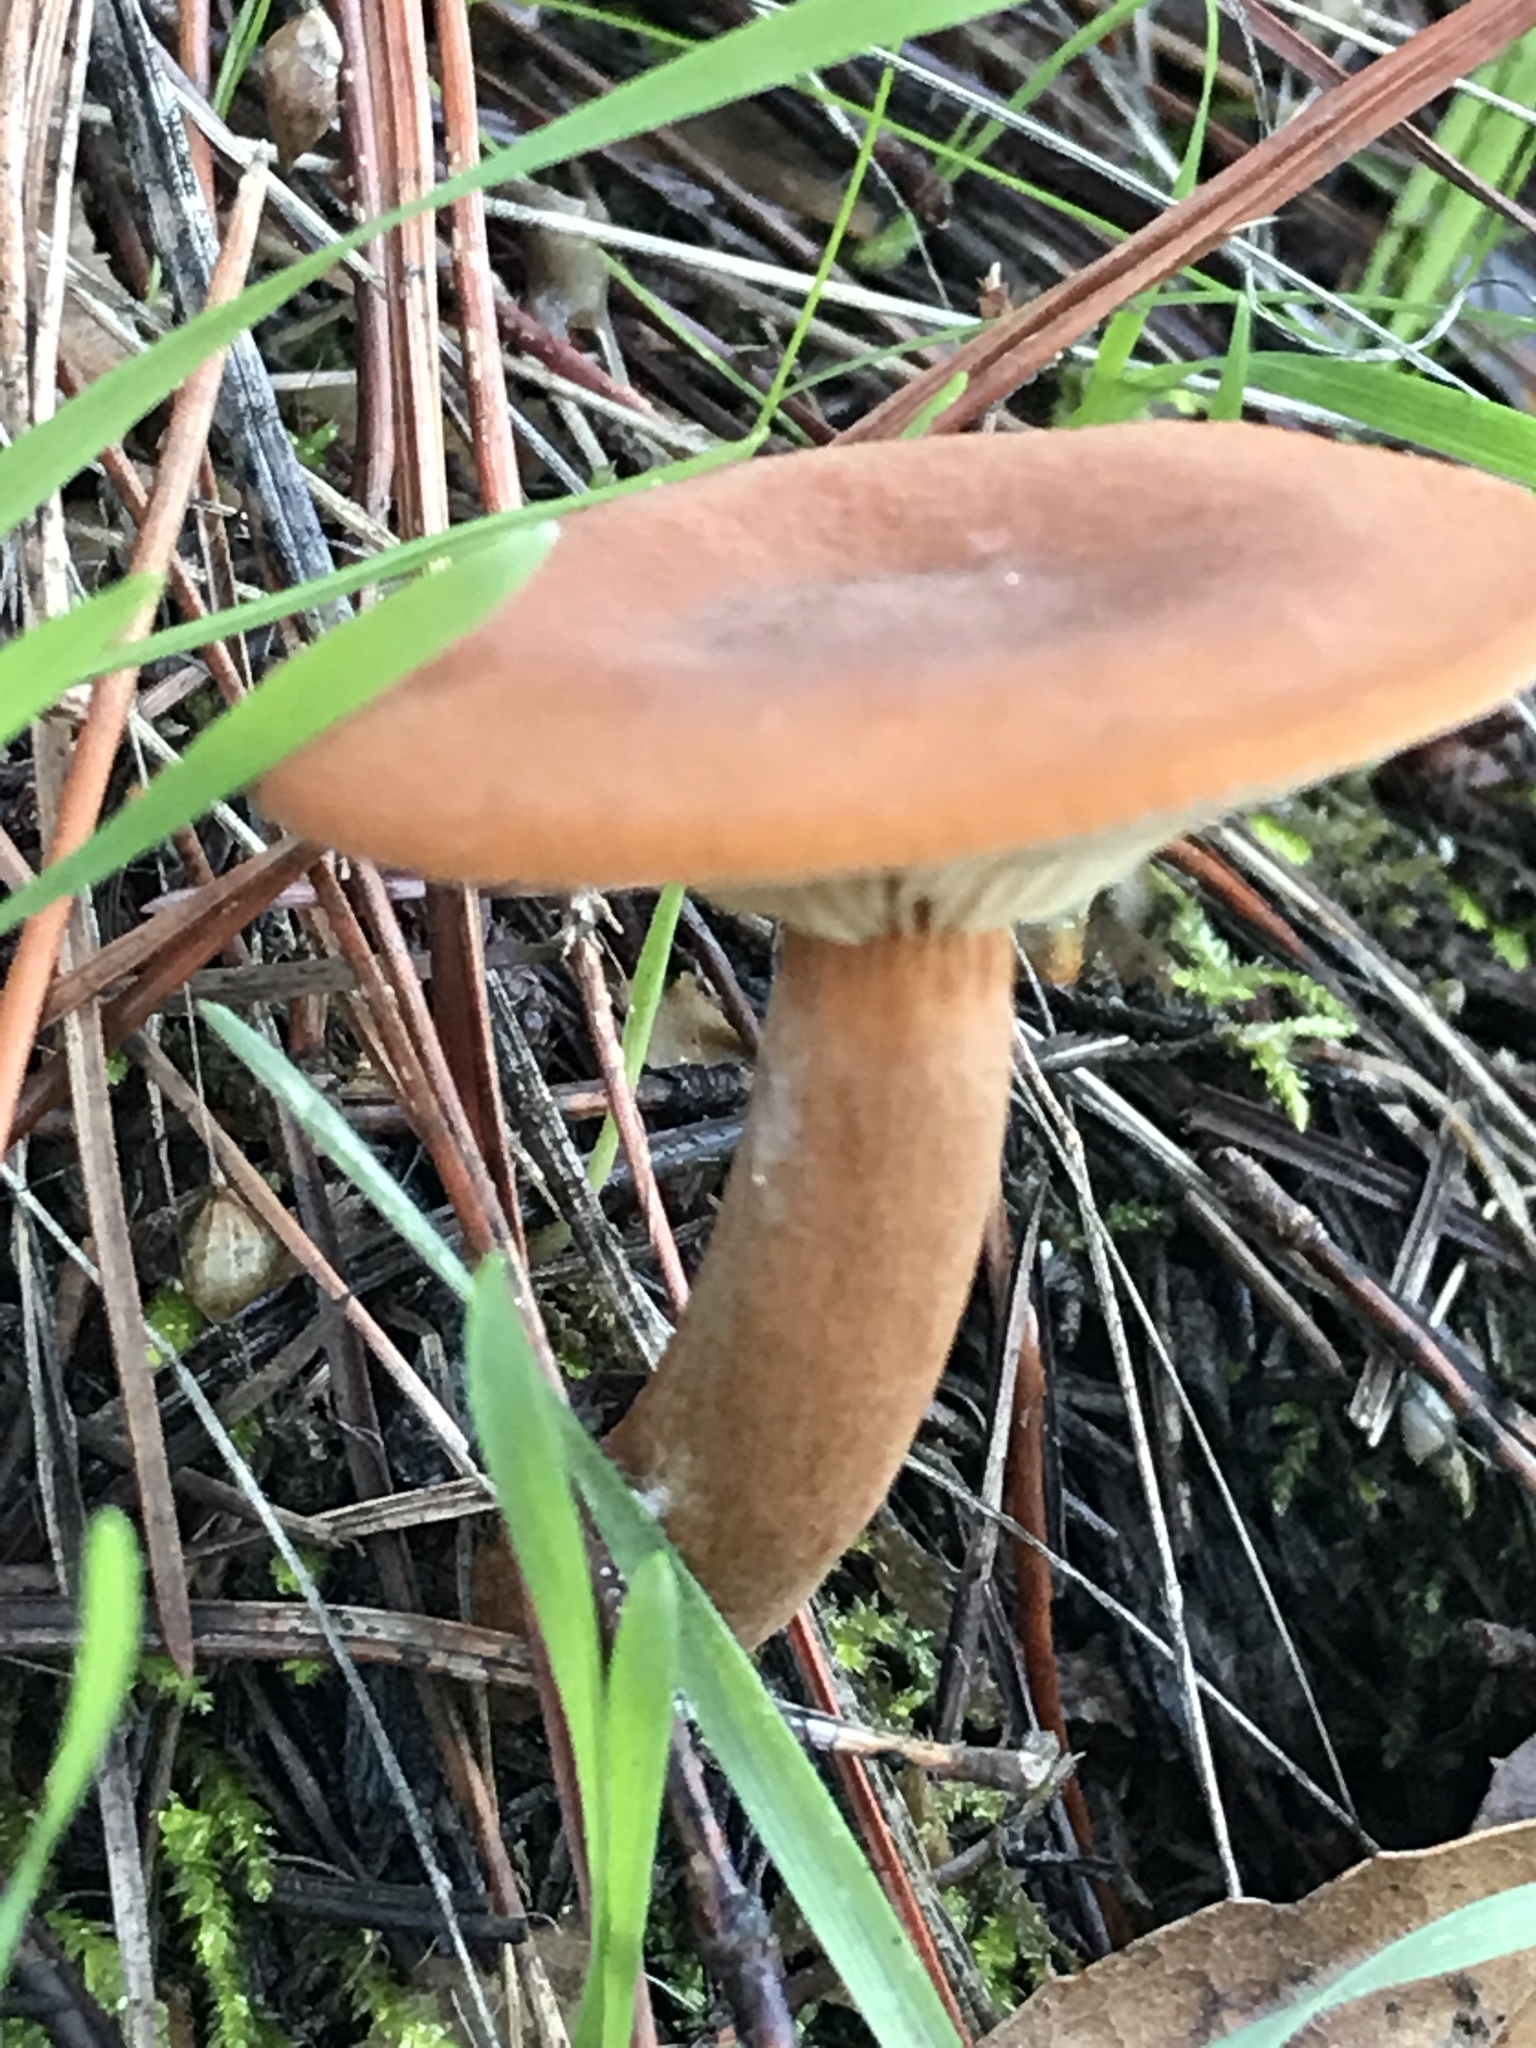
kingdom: Fungi
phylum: Basidiomycota
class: Agaricomycetes
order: Russulales
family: Russulaceae
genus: Lactarius
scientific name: Lactarius rubidus
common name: Candy cap
